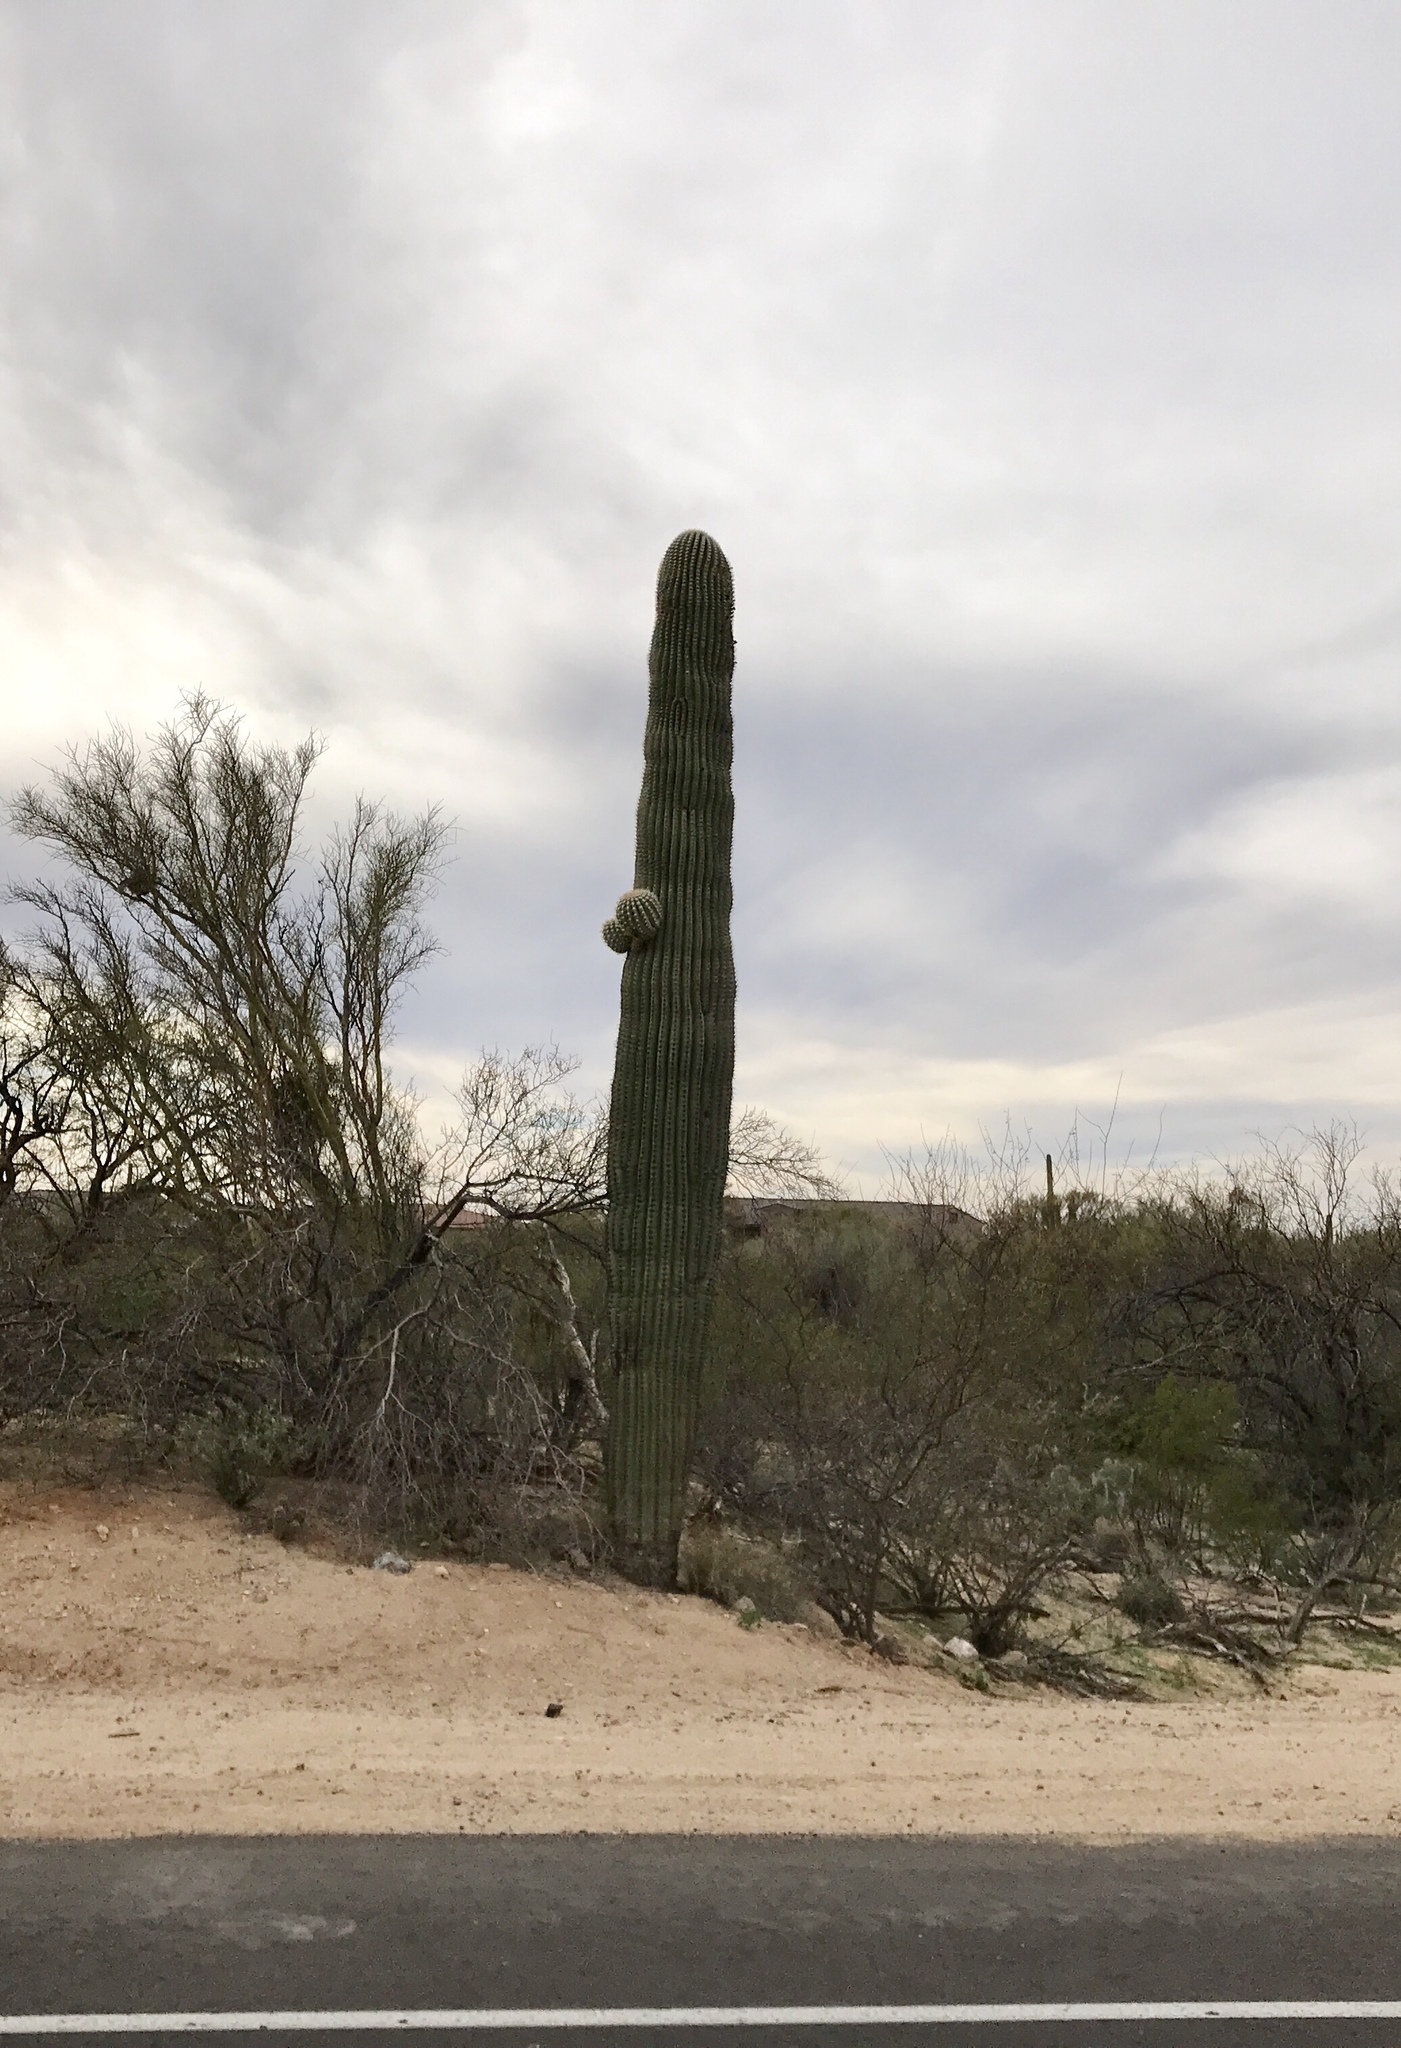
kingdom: Plantae
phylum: Tracheophyta
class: Magnoliopsida
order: Caryophyllales
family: Cactaceae
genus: Carnegiea
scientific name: Carnegiea gigantea
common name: Saguaro
